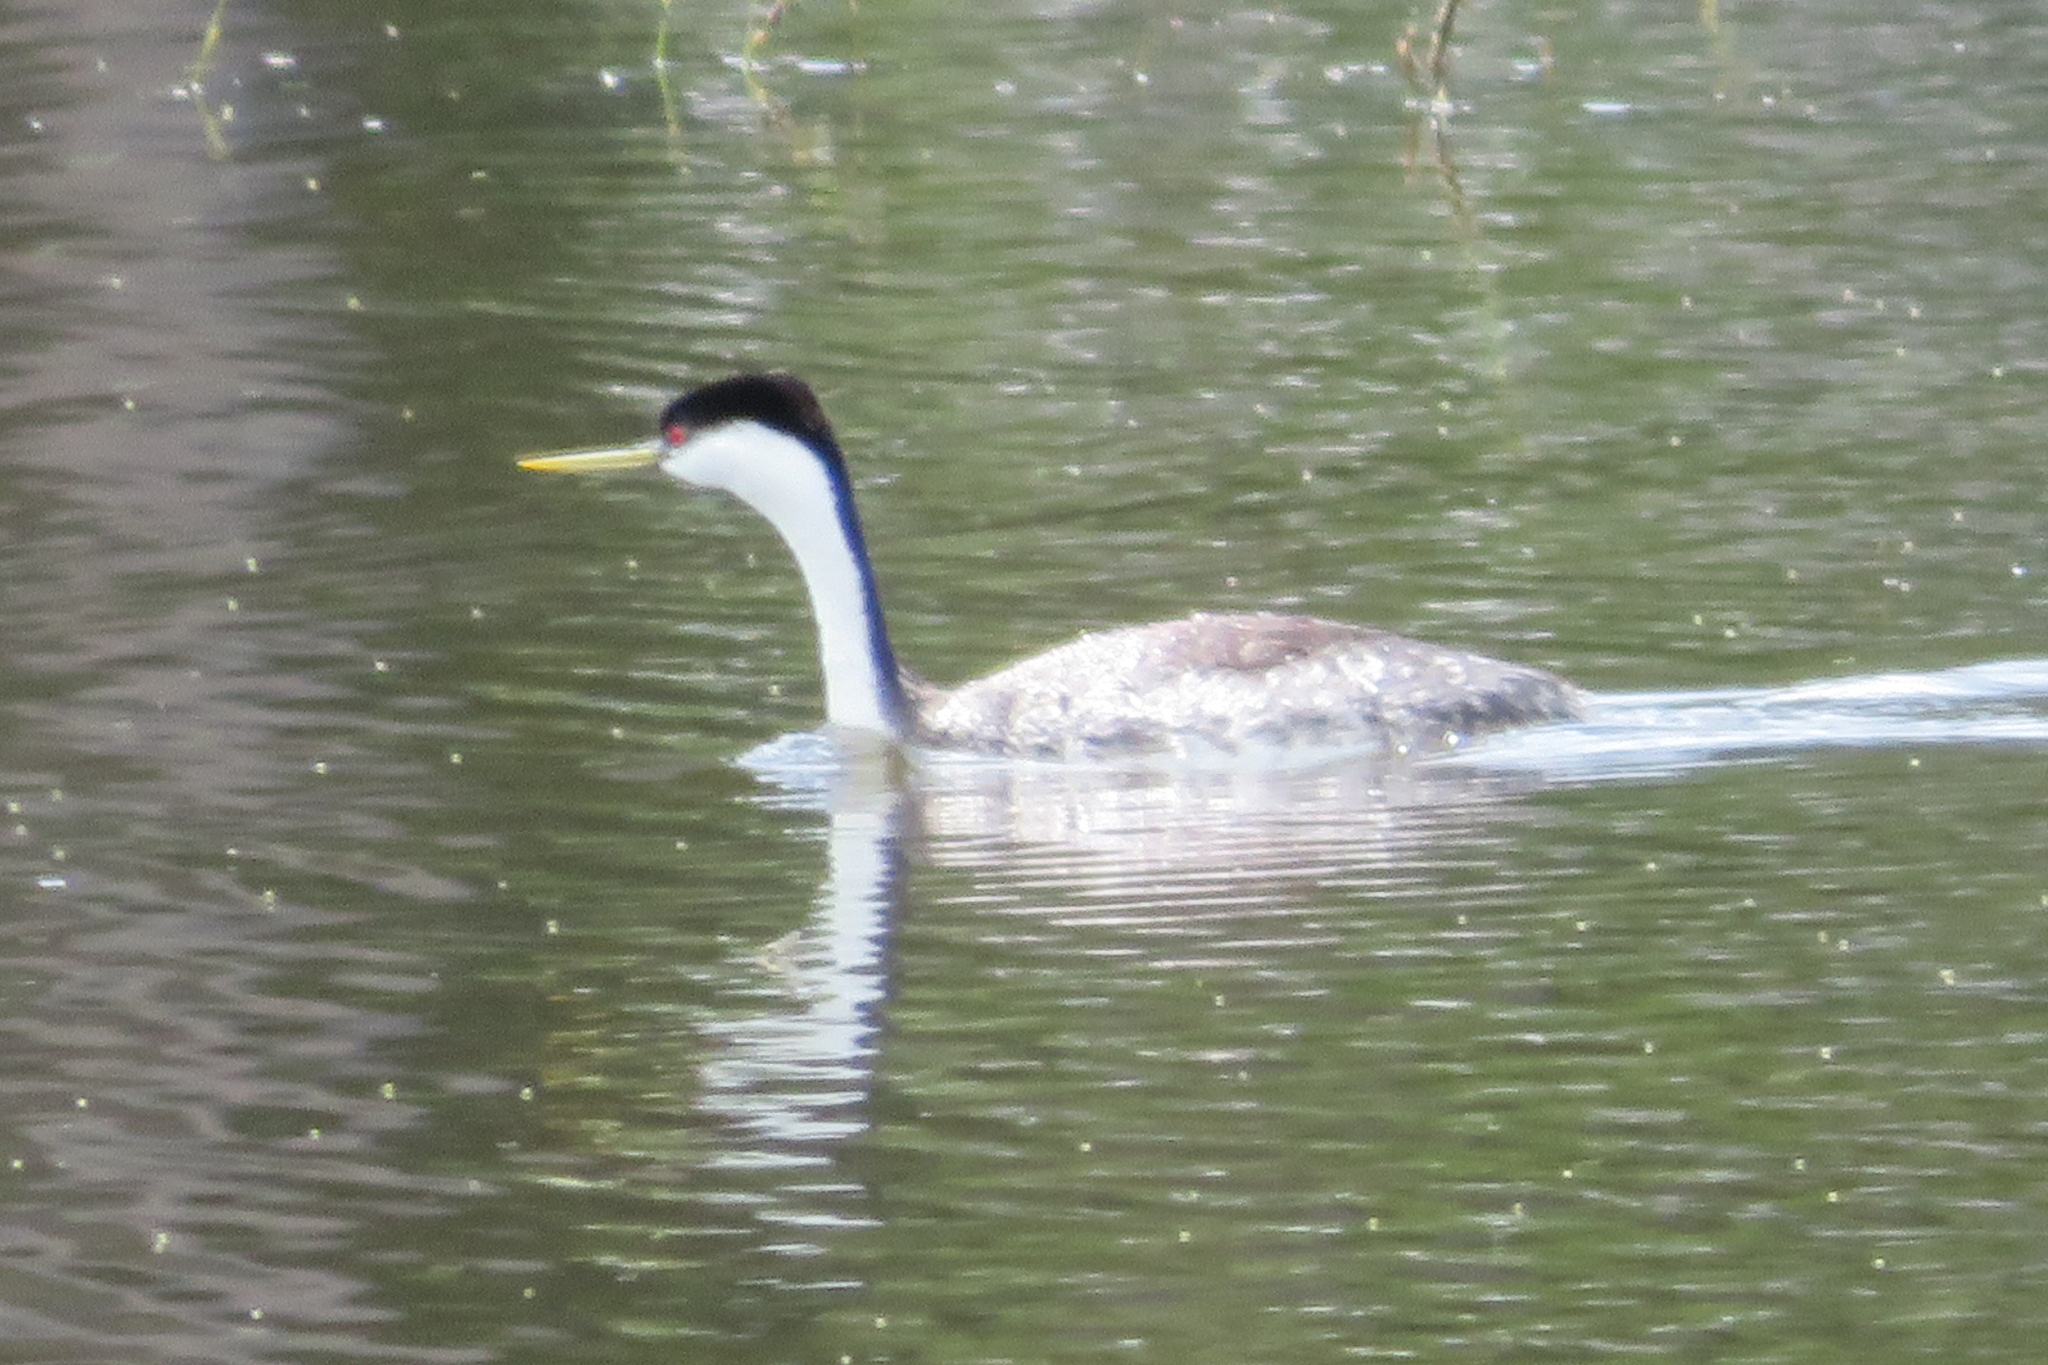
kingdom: Animalia
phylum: Chordata
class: Aves
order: Podicipediformes
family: Podicipedidae
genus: Aechmophorus
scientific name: Aechmophorus occidentalis
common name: Western grebe
